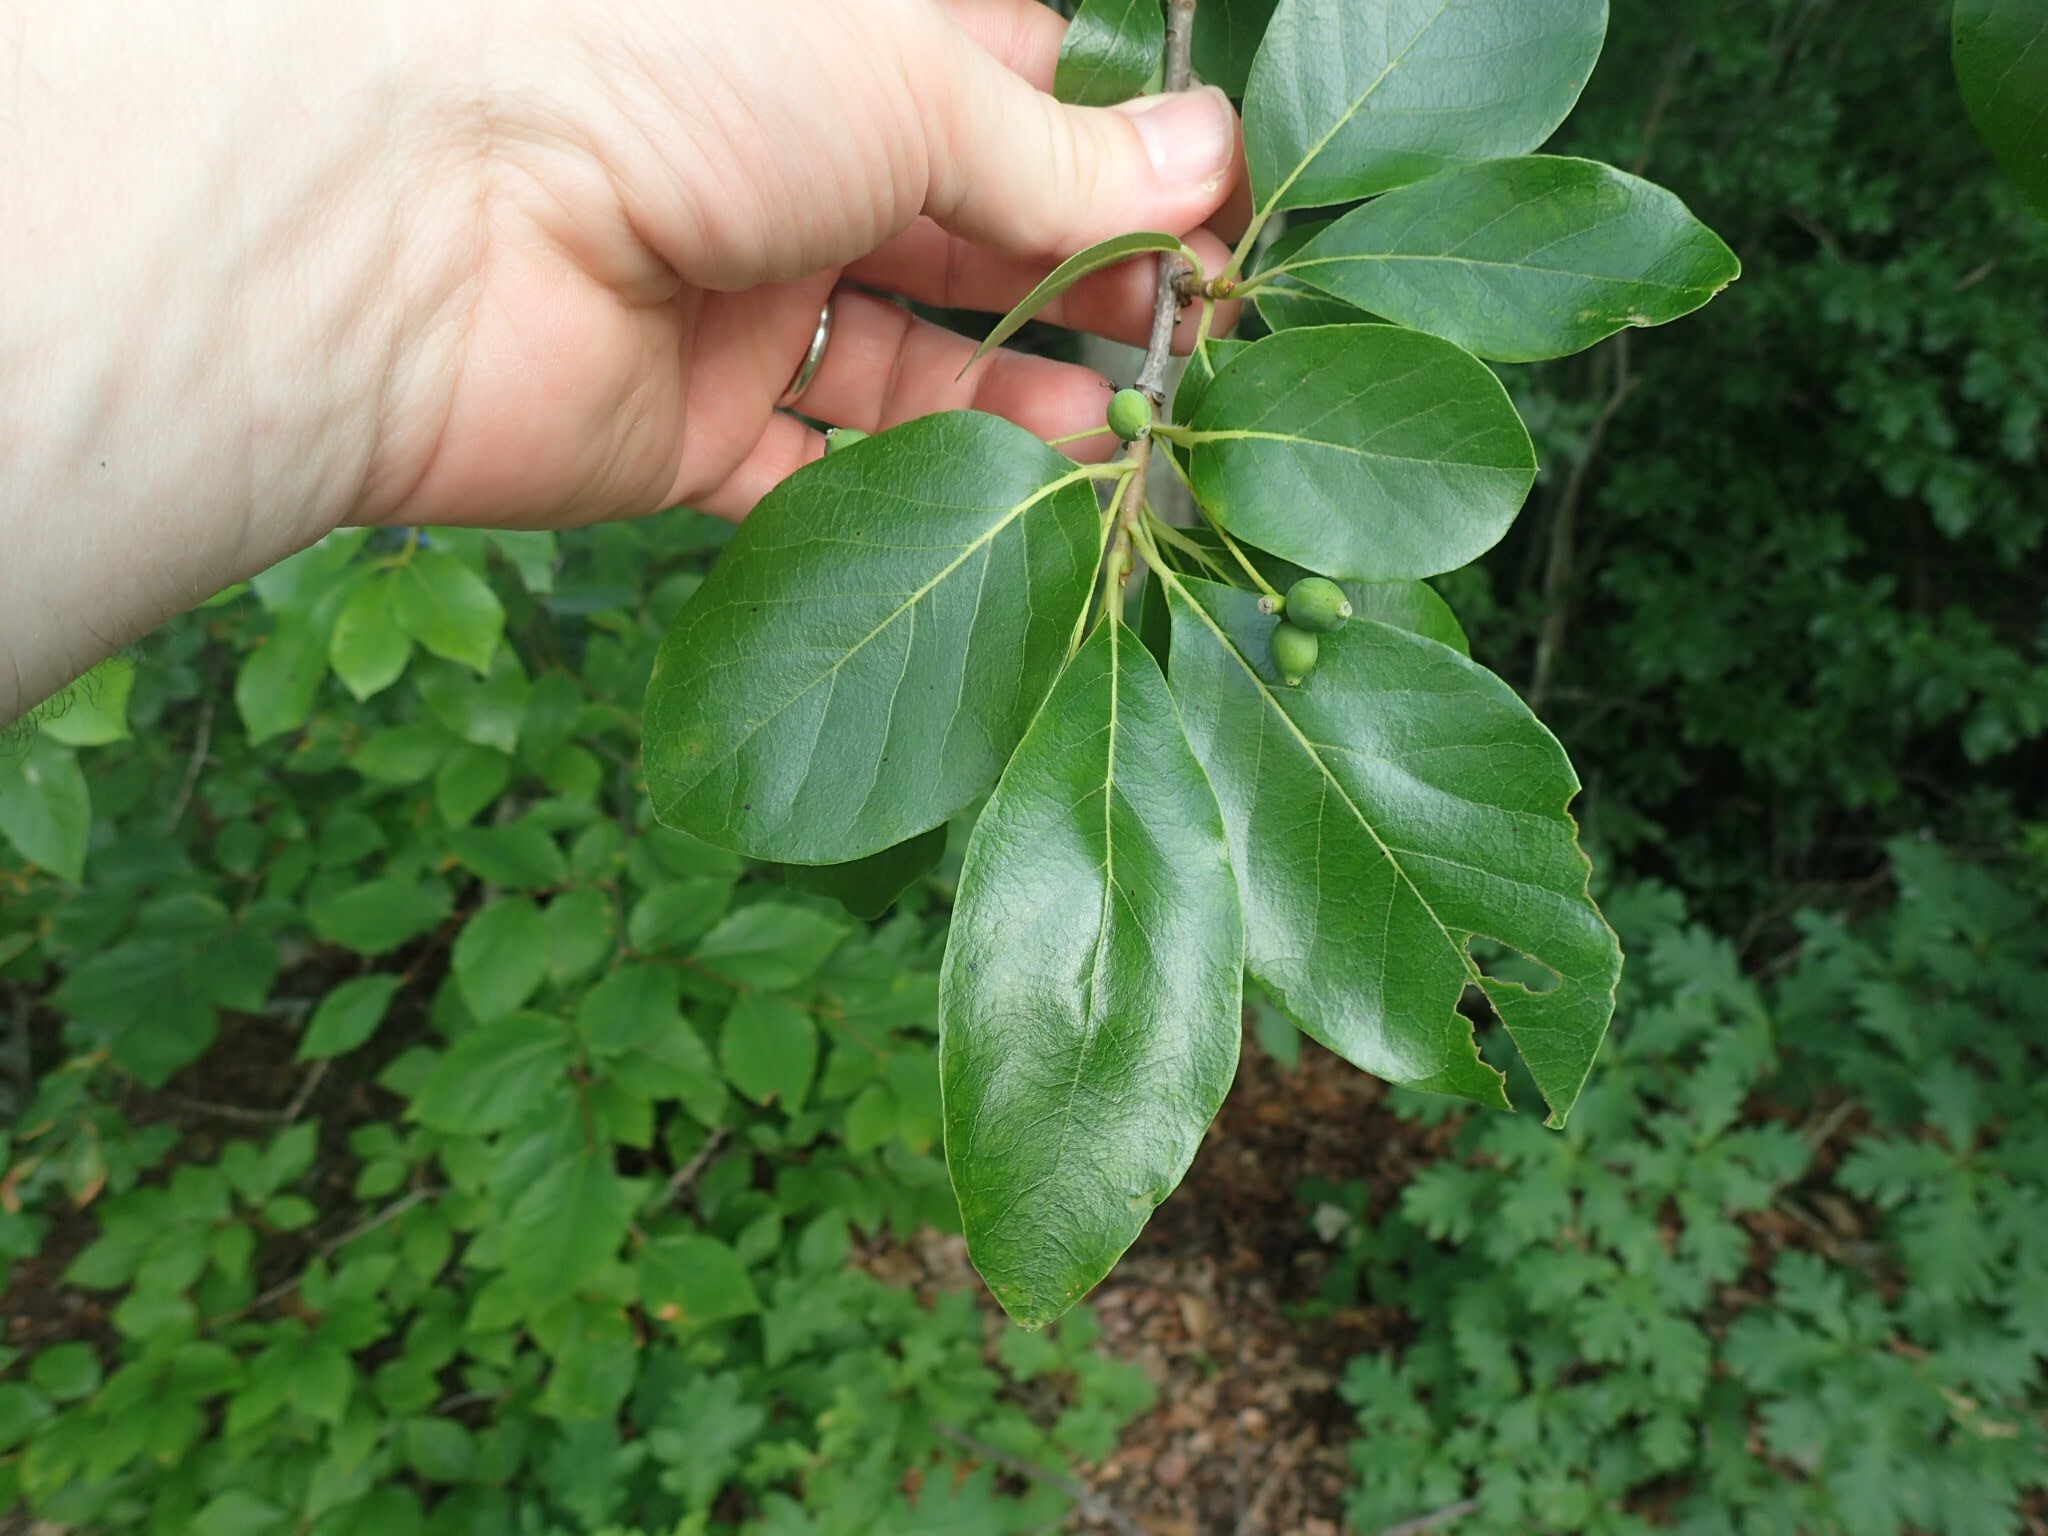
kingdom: Plantae
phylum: Tracheophyta
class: Magnoliopsida
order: Cornales
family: Nyssaceae
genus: Nyssa
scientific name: Nyssa sylvatica
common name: Black tupelo
